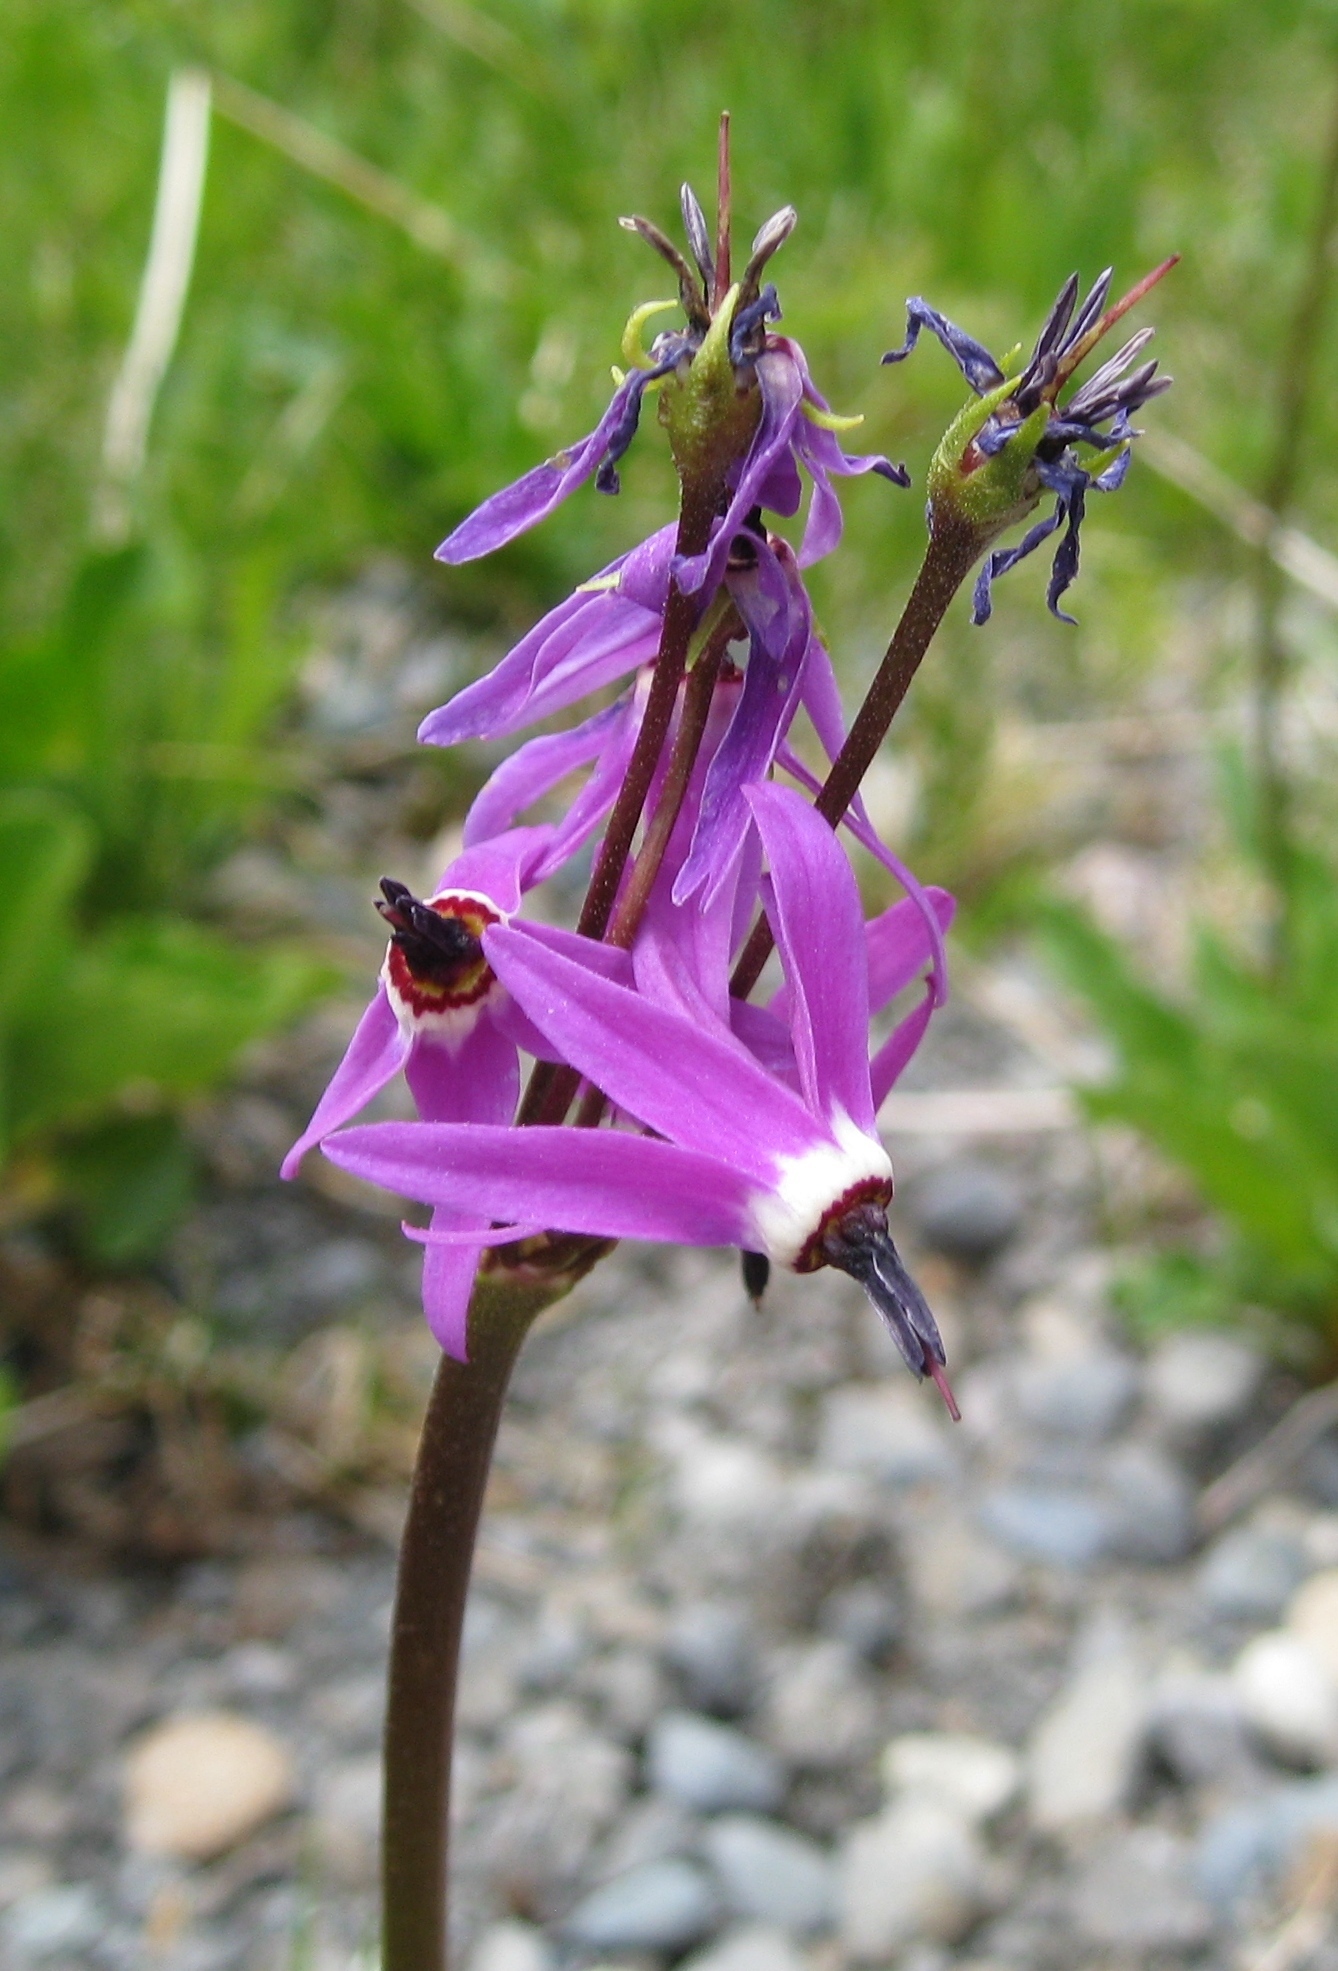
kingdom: Plantae
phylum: Tracheophyta
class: Magnoliopsida
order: Ericales
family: Primulaceae
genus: Dodecatheon
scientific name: Dodecatheon jeffreyanum
